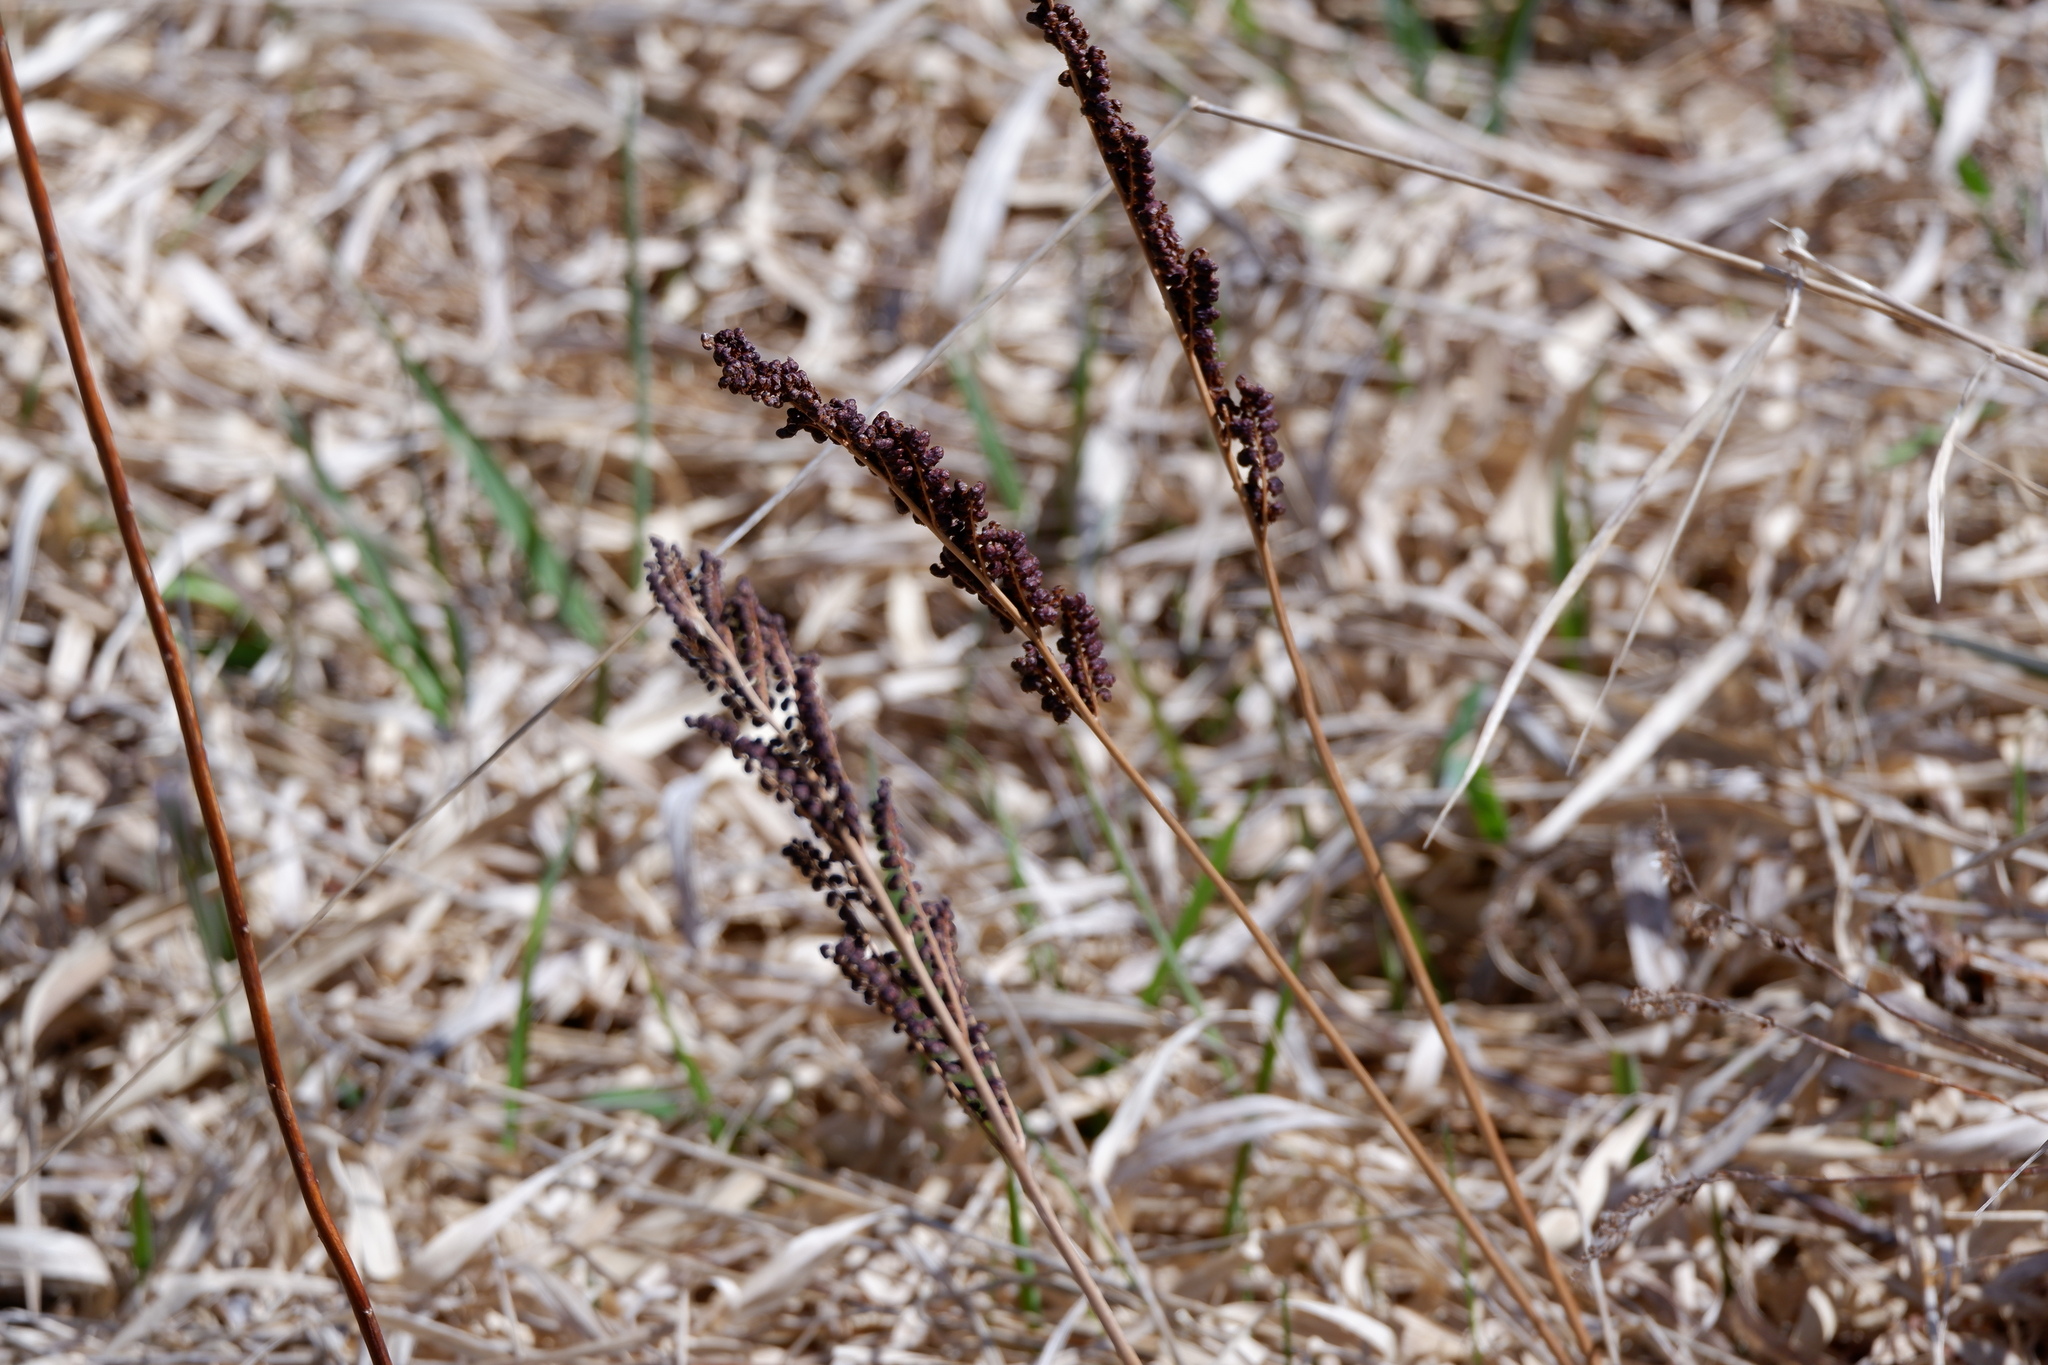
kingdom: Plantae
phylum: Tracheophyta
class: Polypodiopsida
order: Polypodiales
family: Onocleaceae
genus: Onoclea
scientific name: Onoclea sensibilis
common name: Sensitive fern
